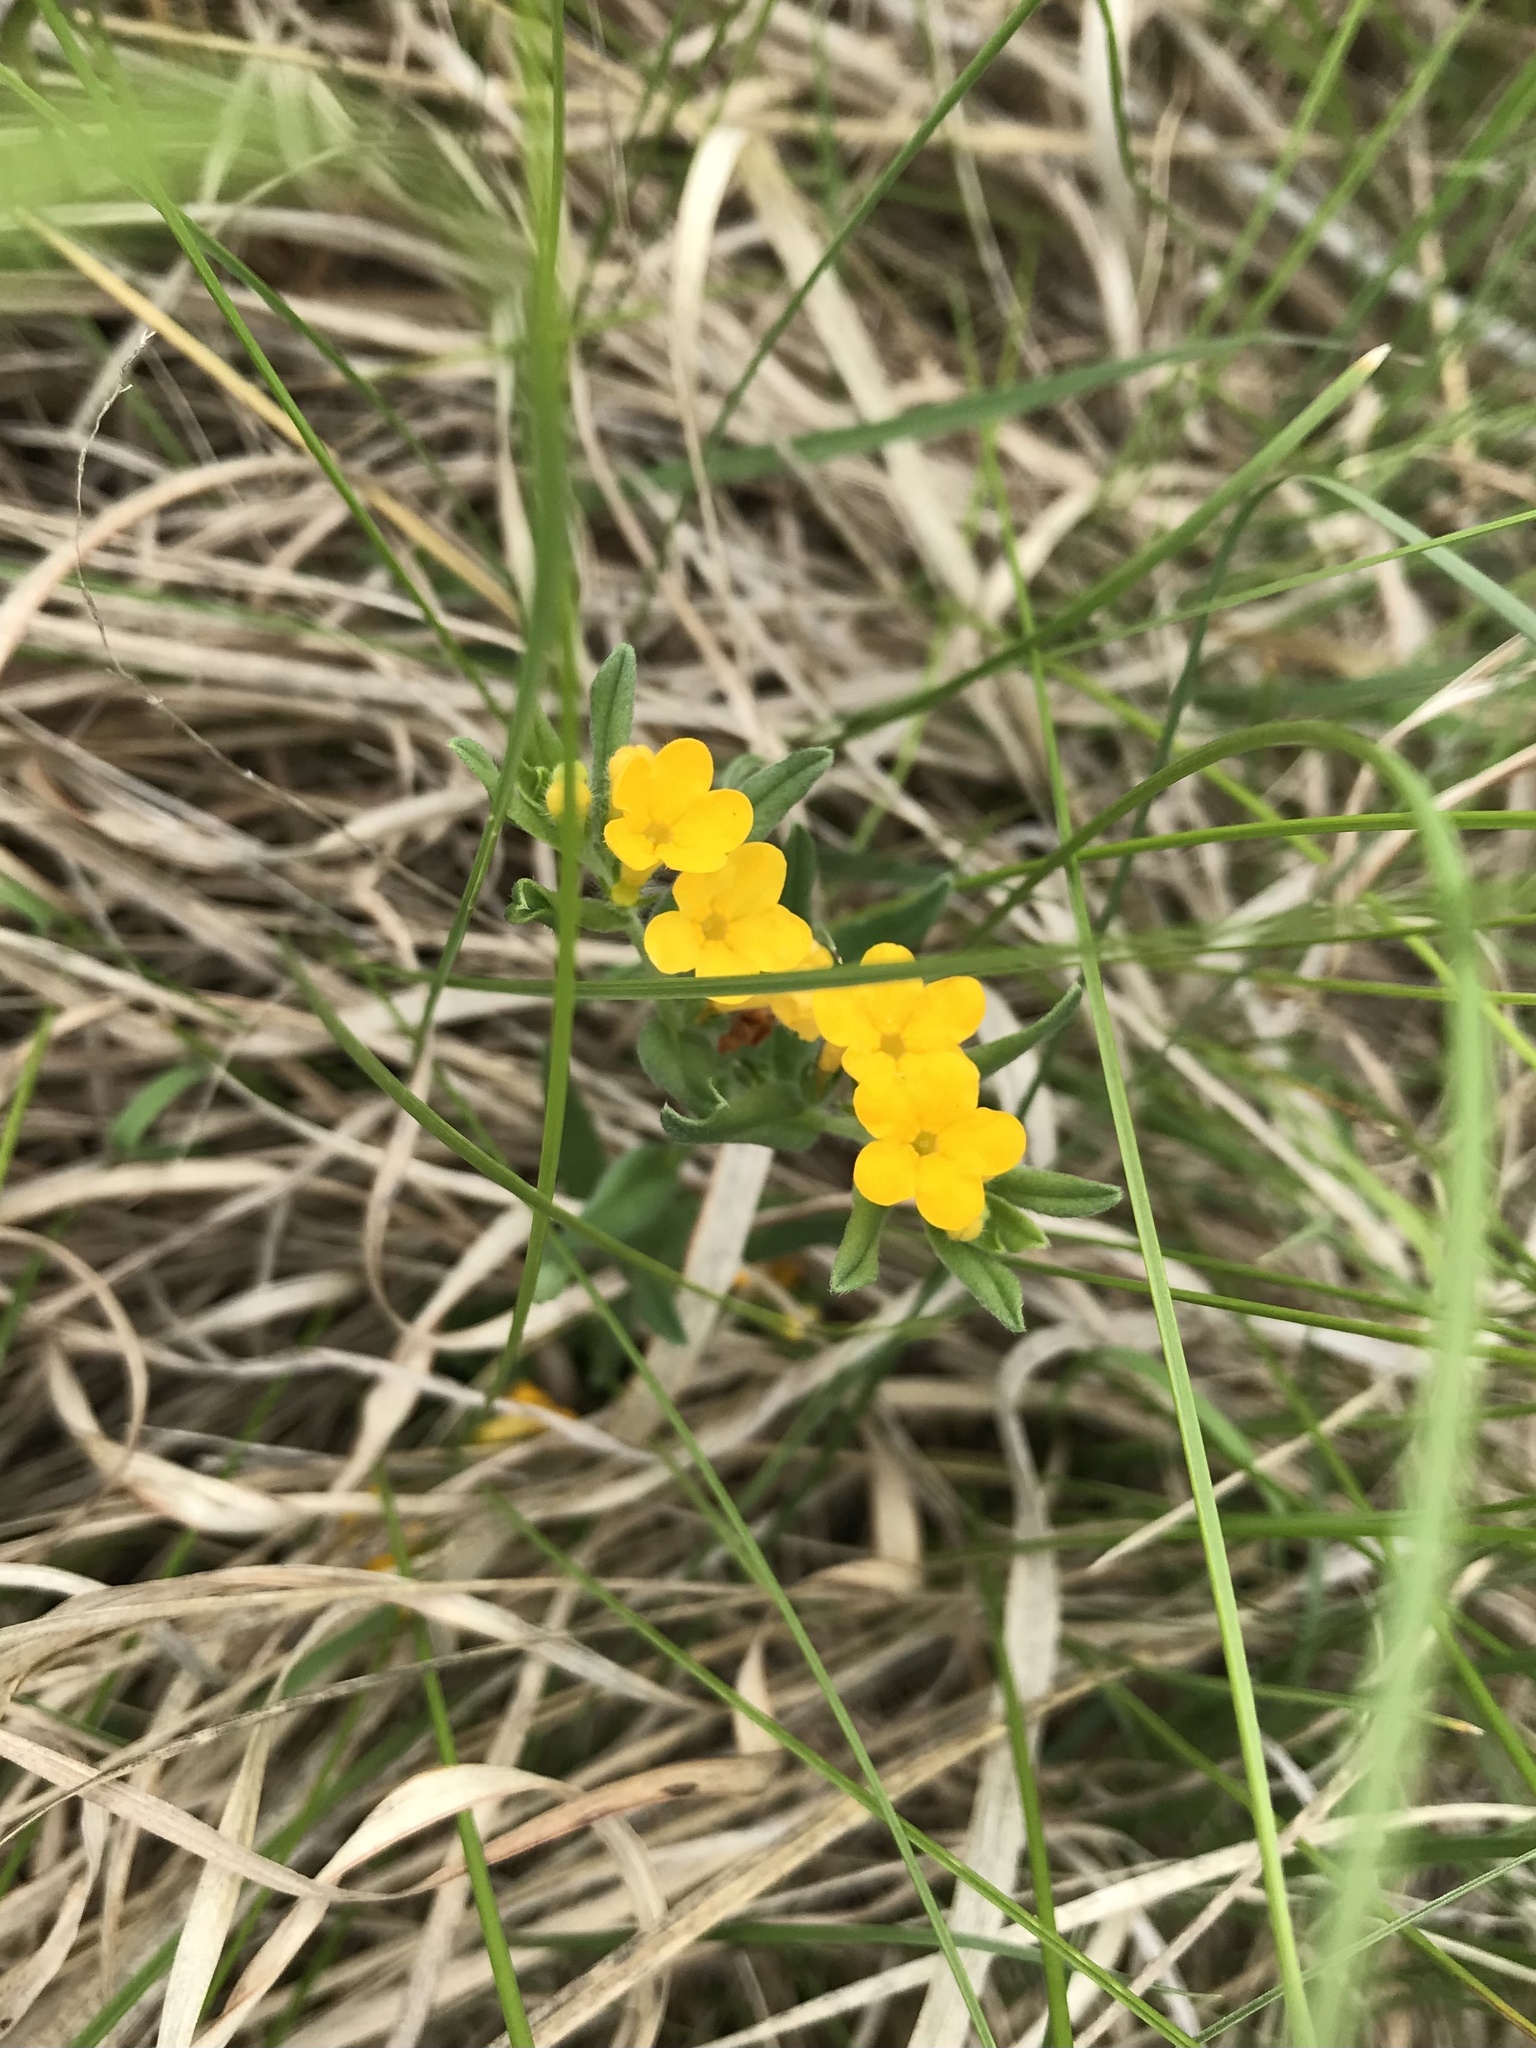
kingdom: Plantae
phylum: Tracheophyta
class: Magnoliopsida
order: Boraginales
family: Boraginaceae
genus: Lithospermum
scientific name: Lithospermum canescens
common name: Hoary puccoon
